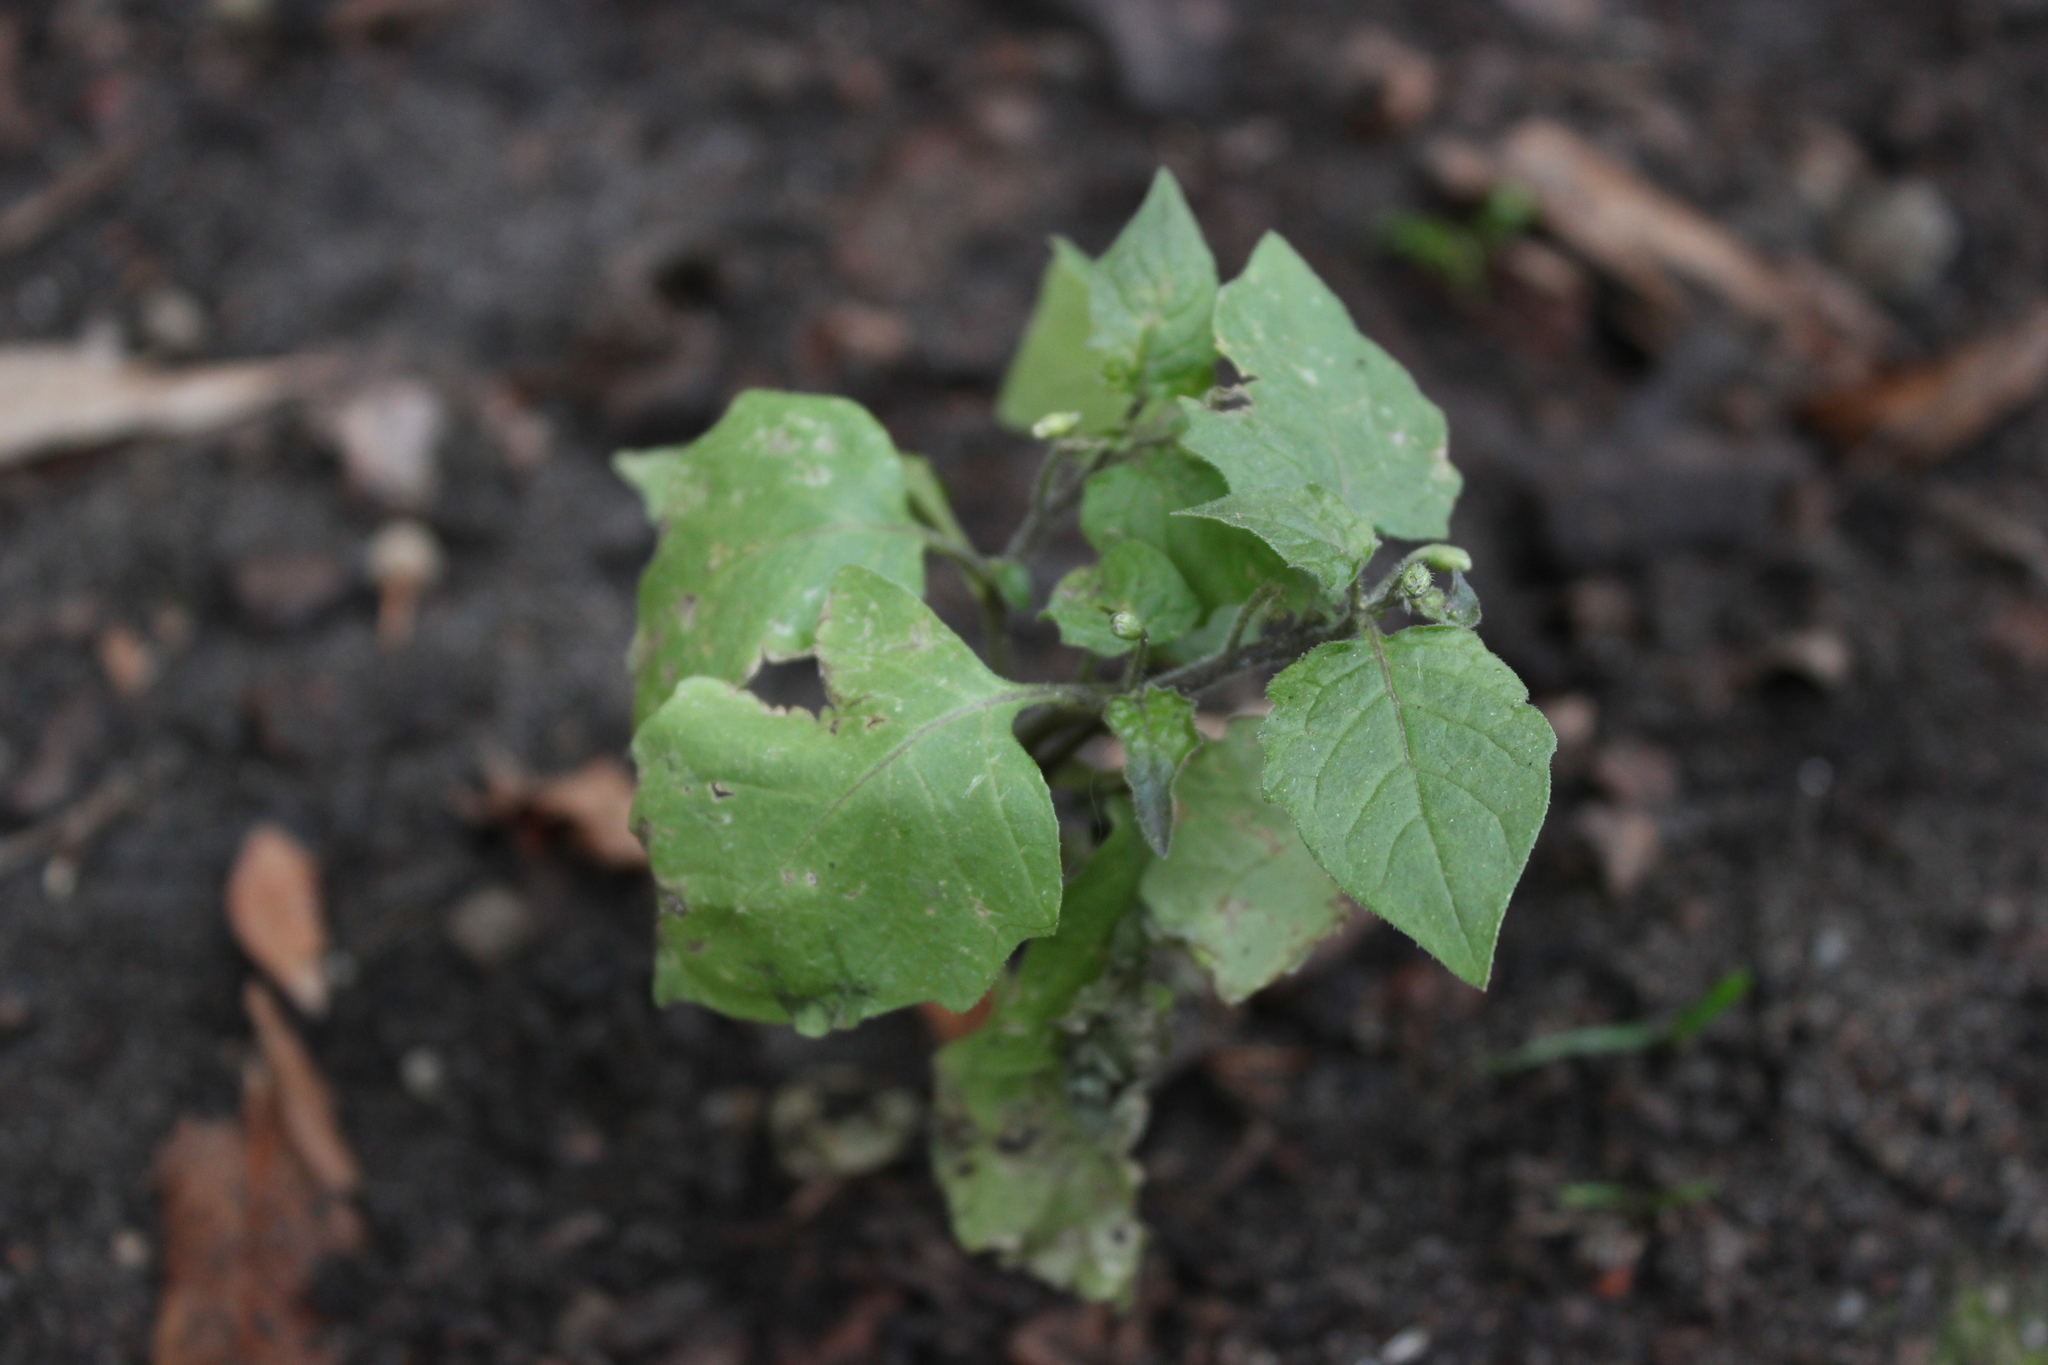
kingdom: Plantae
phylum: Tracheophyta
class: Magnoliopsida
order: Solanales
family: Solanaceae
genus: Solanum
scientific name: Solanum nigrum
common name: Black nightshade
